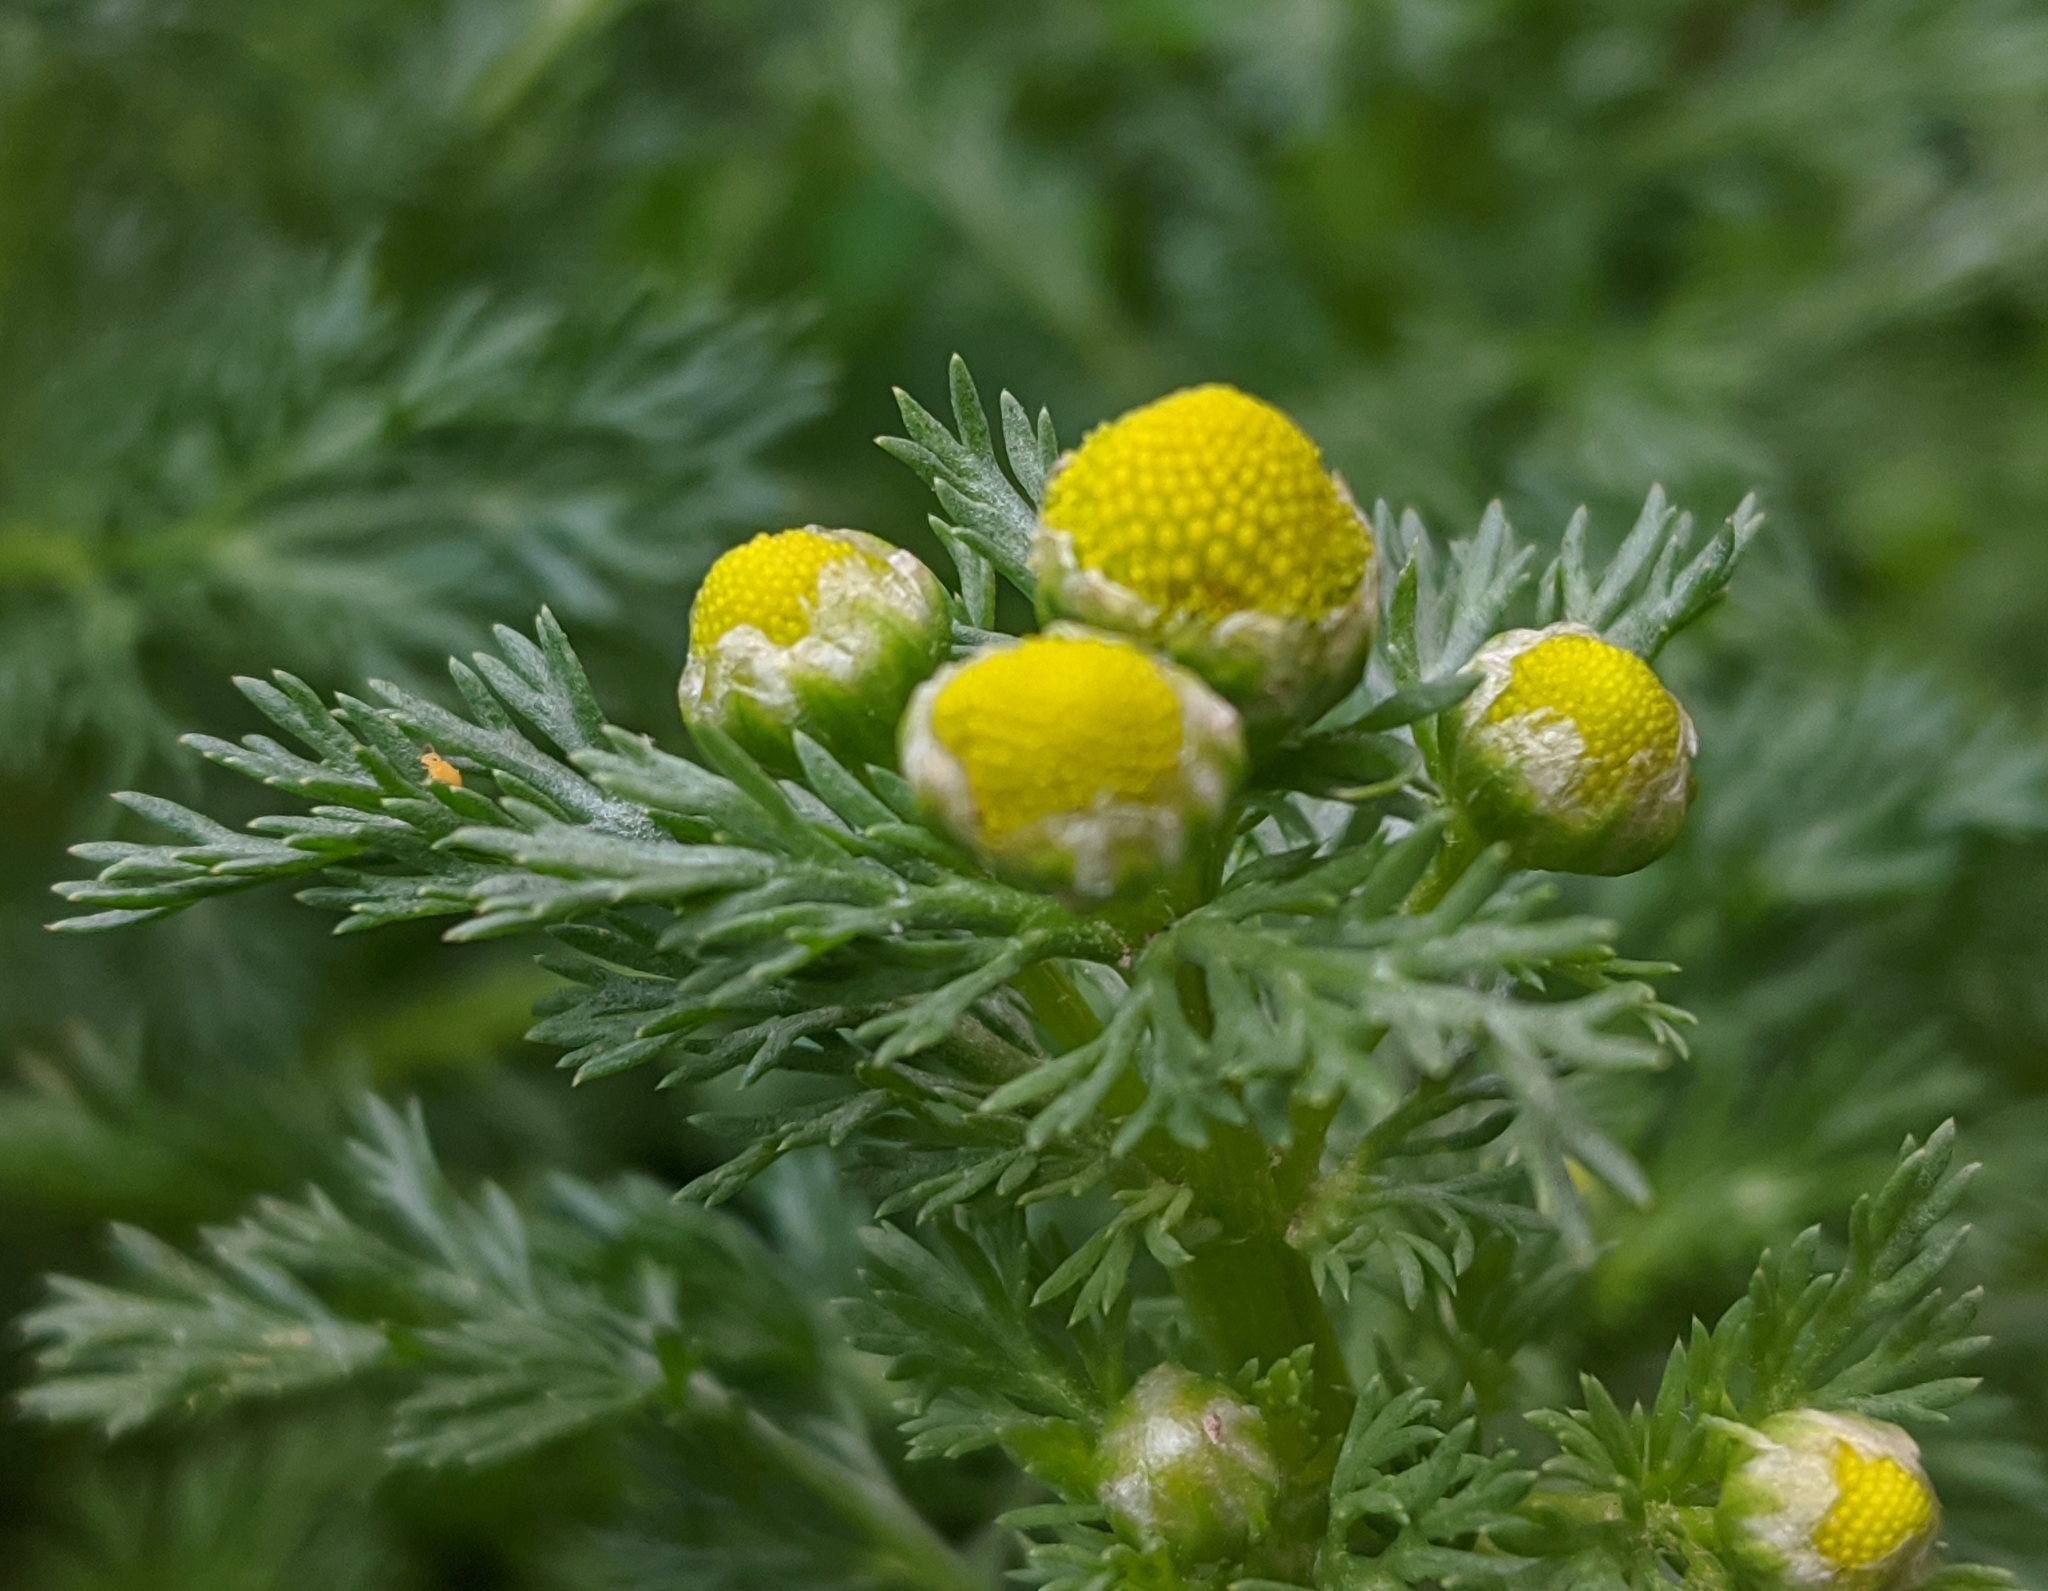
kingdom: Plantae
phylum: Tracheophyta
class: Magnoliopsida
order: Asterales
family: Asteraceae
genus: Matricaria
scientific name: Matricaria discoidea
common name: Disc mayweed
